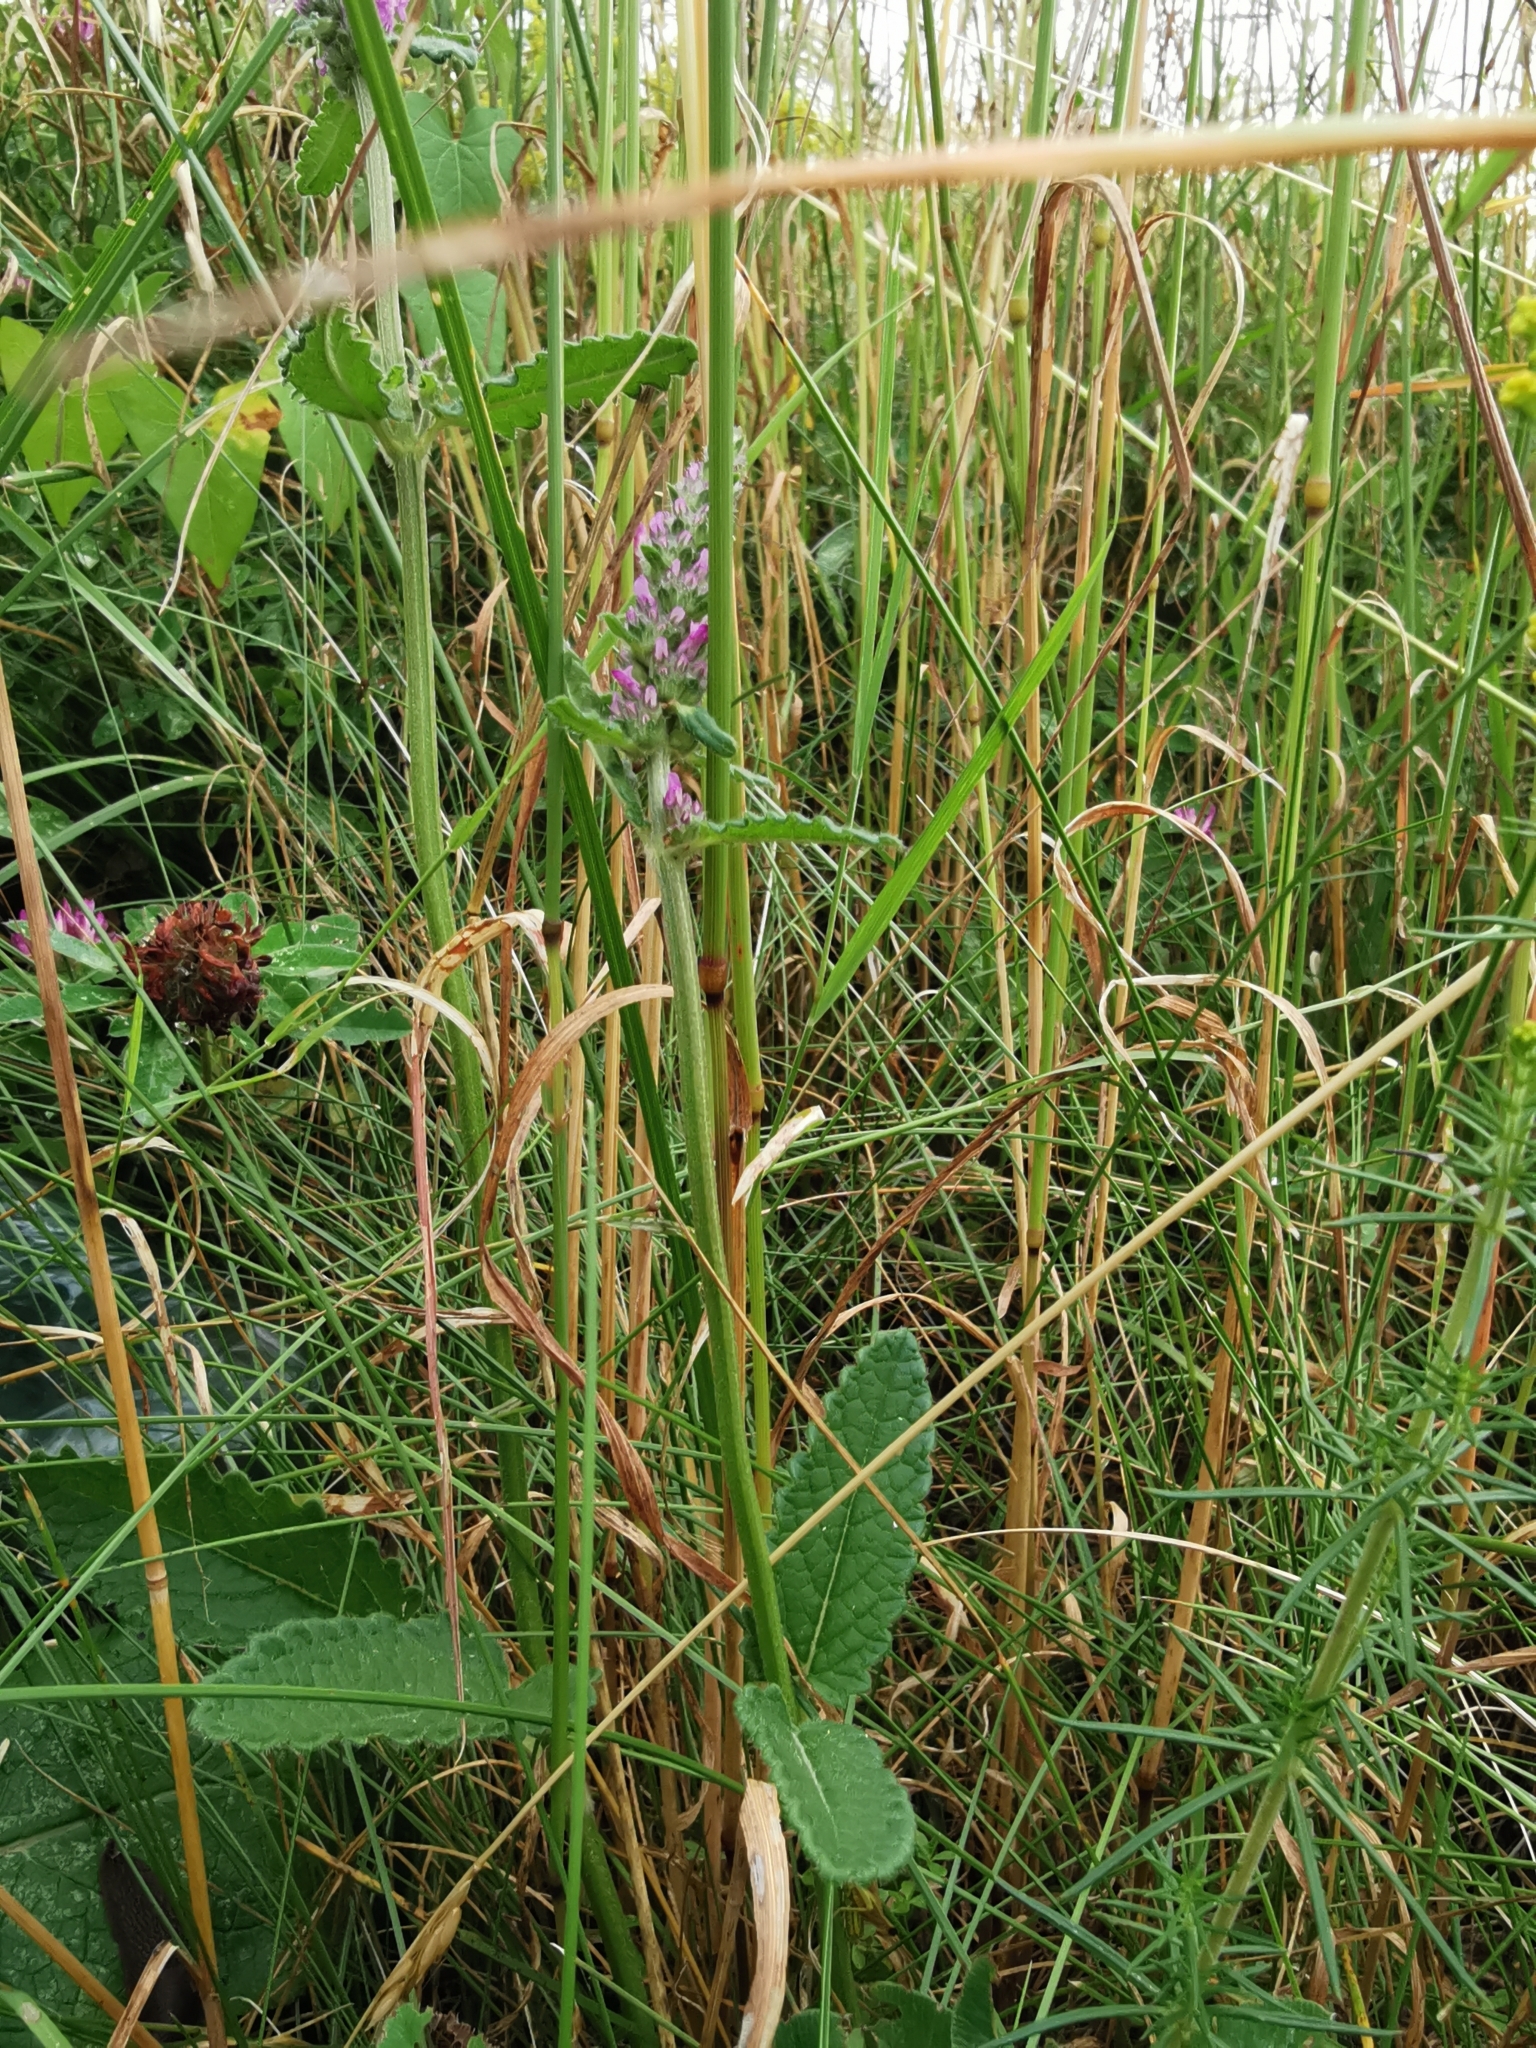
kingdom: Plantae
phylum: Tracheophyta
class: Magnoliopsida
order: Lamiales
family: Lamiaceae
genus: Betonica
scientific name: Betonica officinalis
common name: Bishop's-wort
